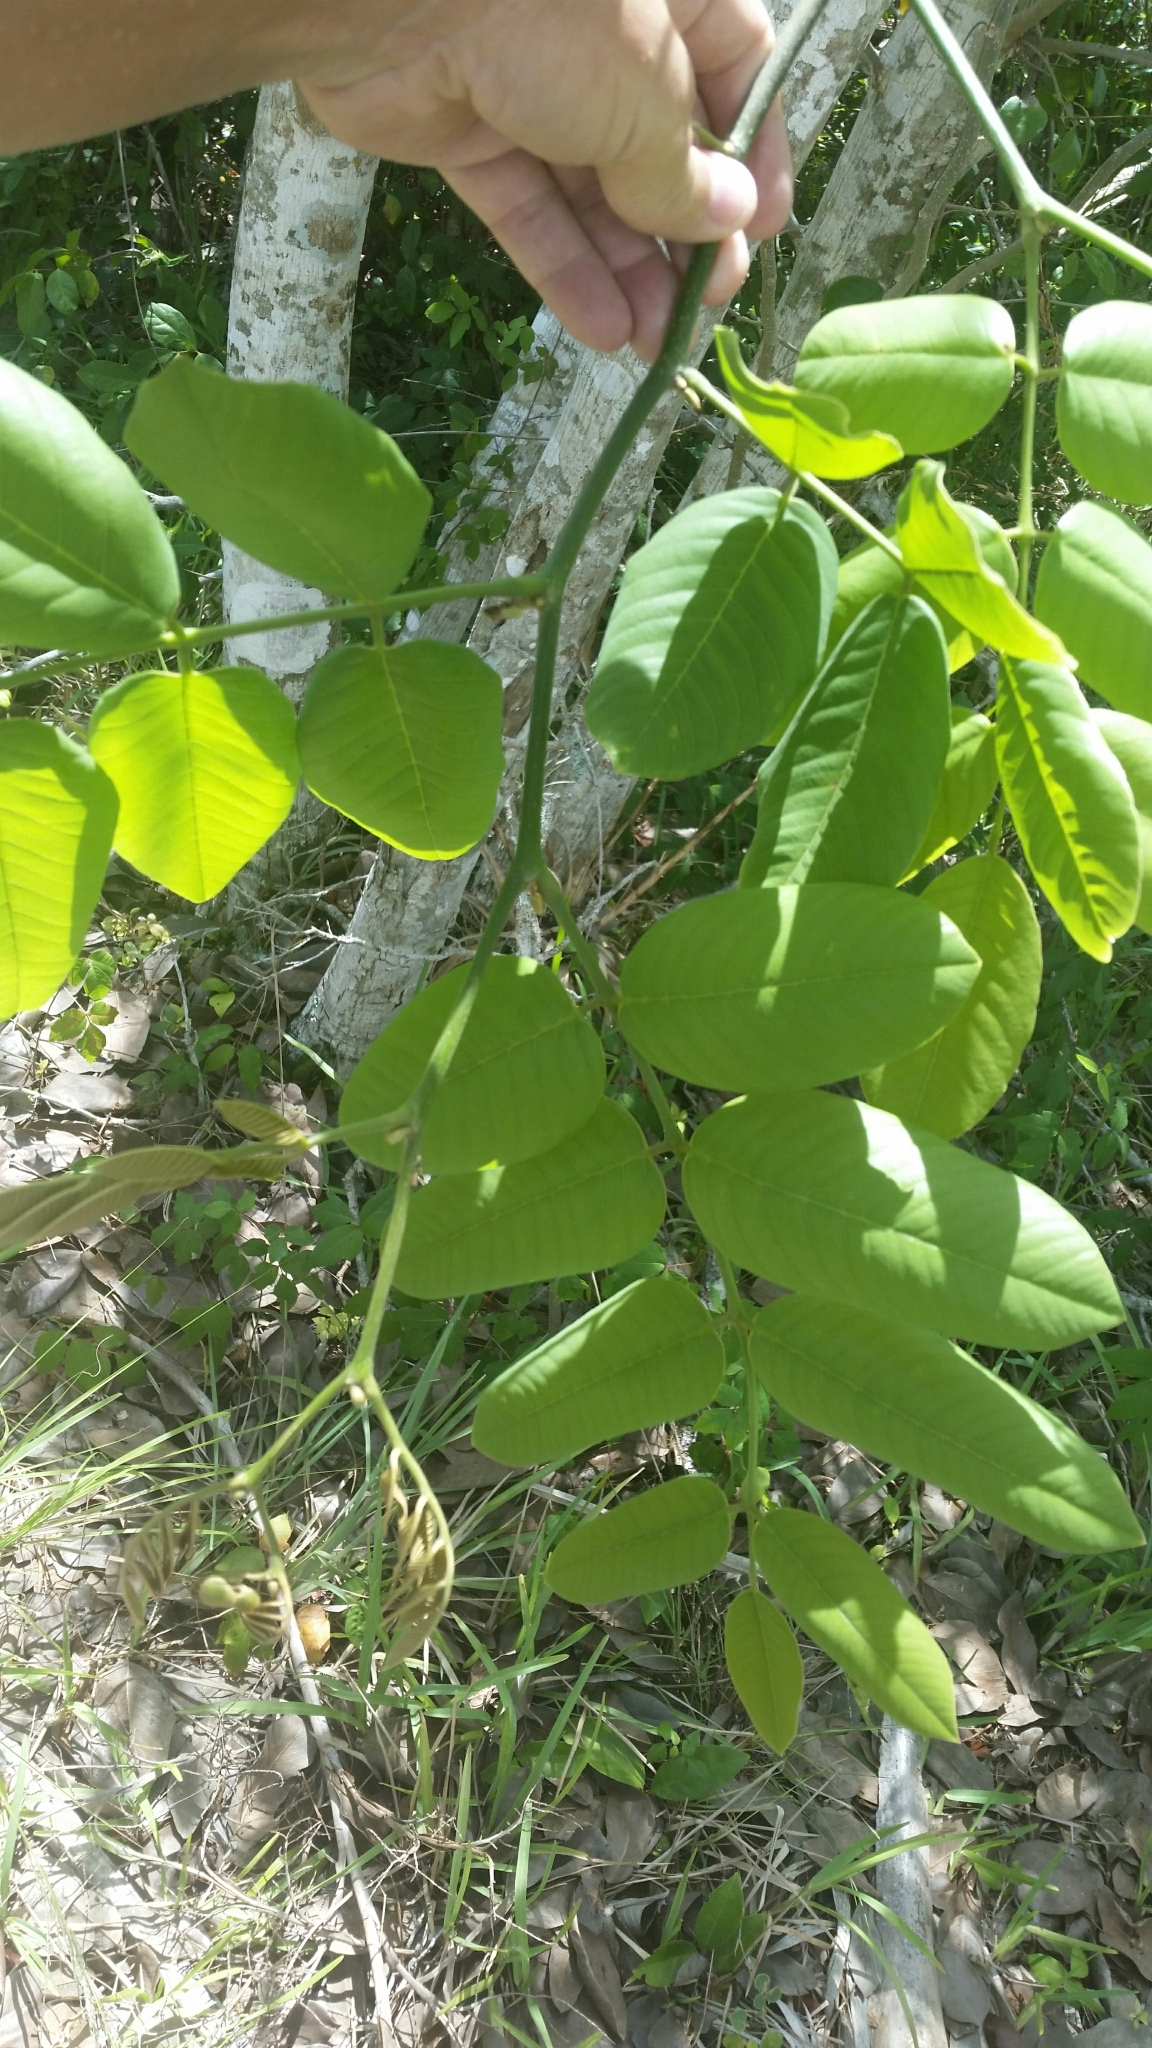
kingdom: Plantae
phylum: Tracheophyta
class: Magnoliopsida
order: Fabales
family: Fabaceae
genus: Piscidia
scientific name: Piscidia piscipula
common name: Florida fishpoison tree
